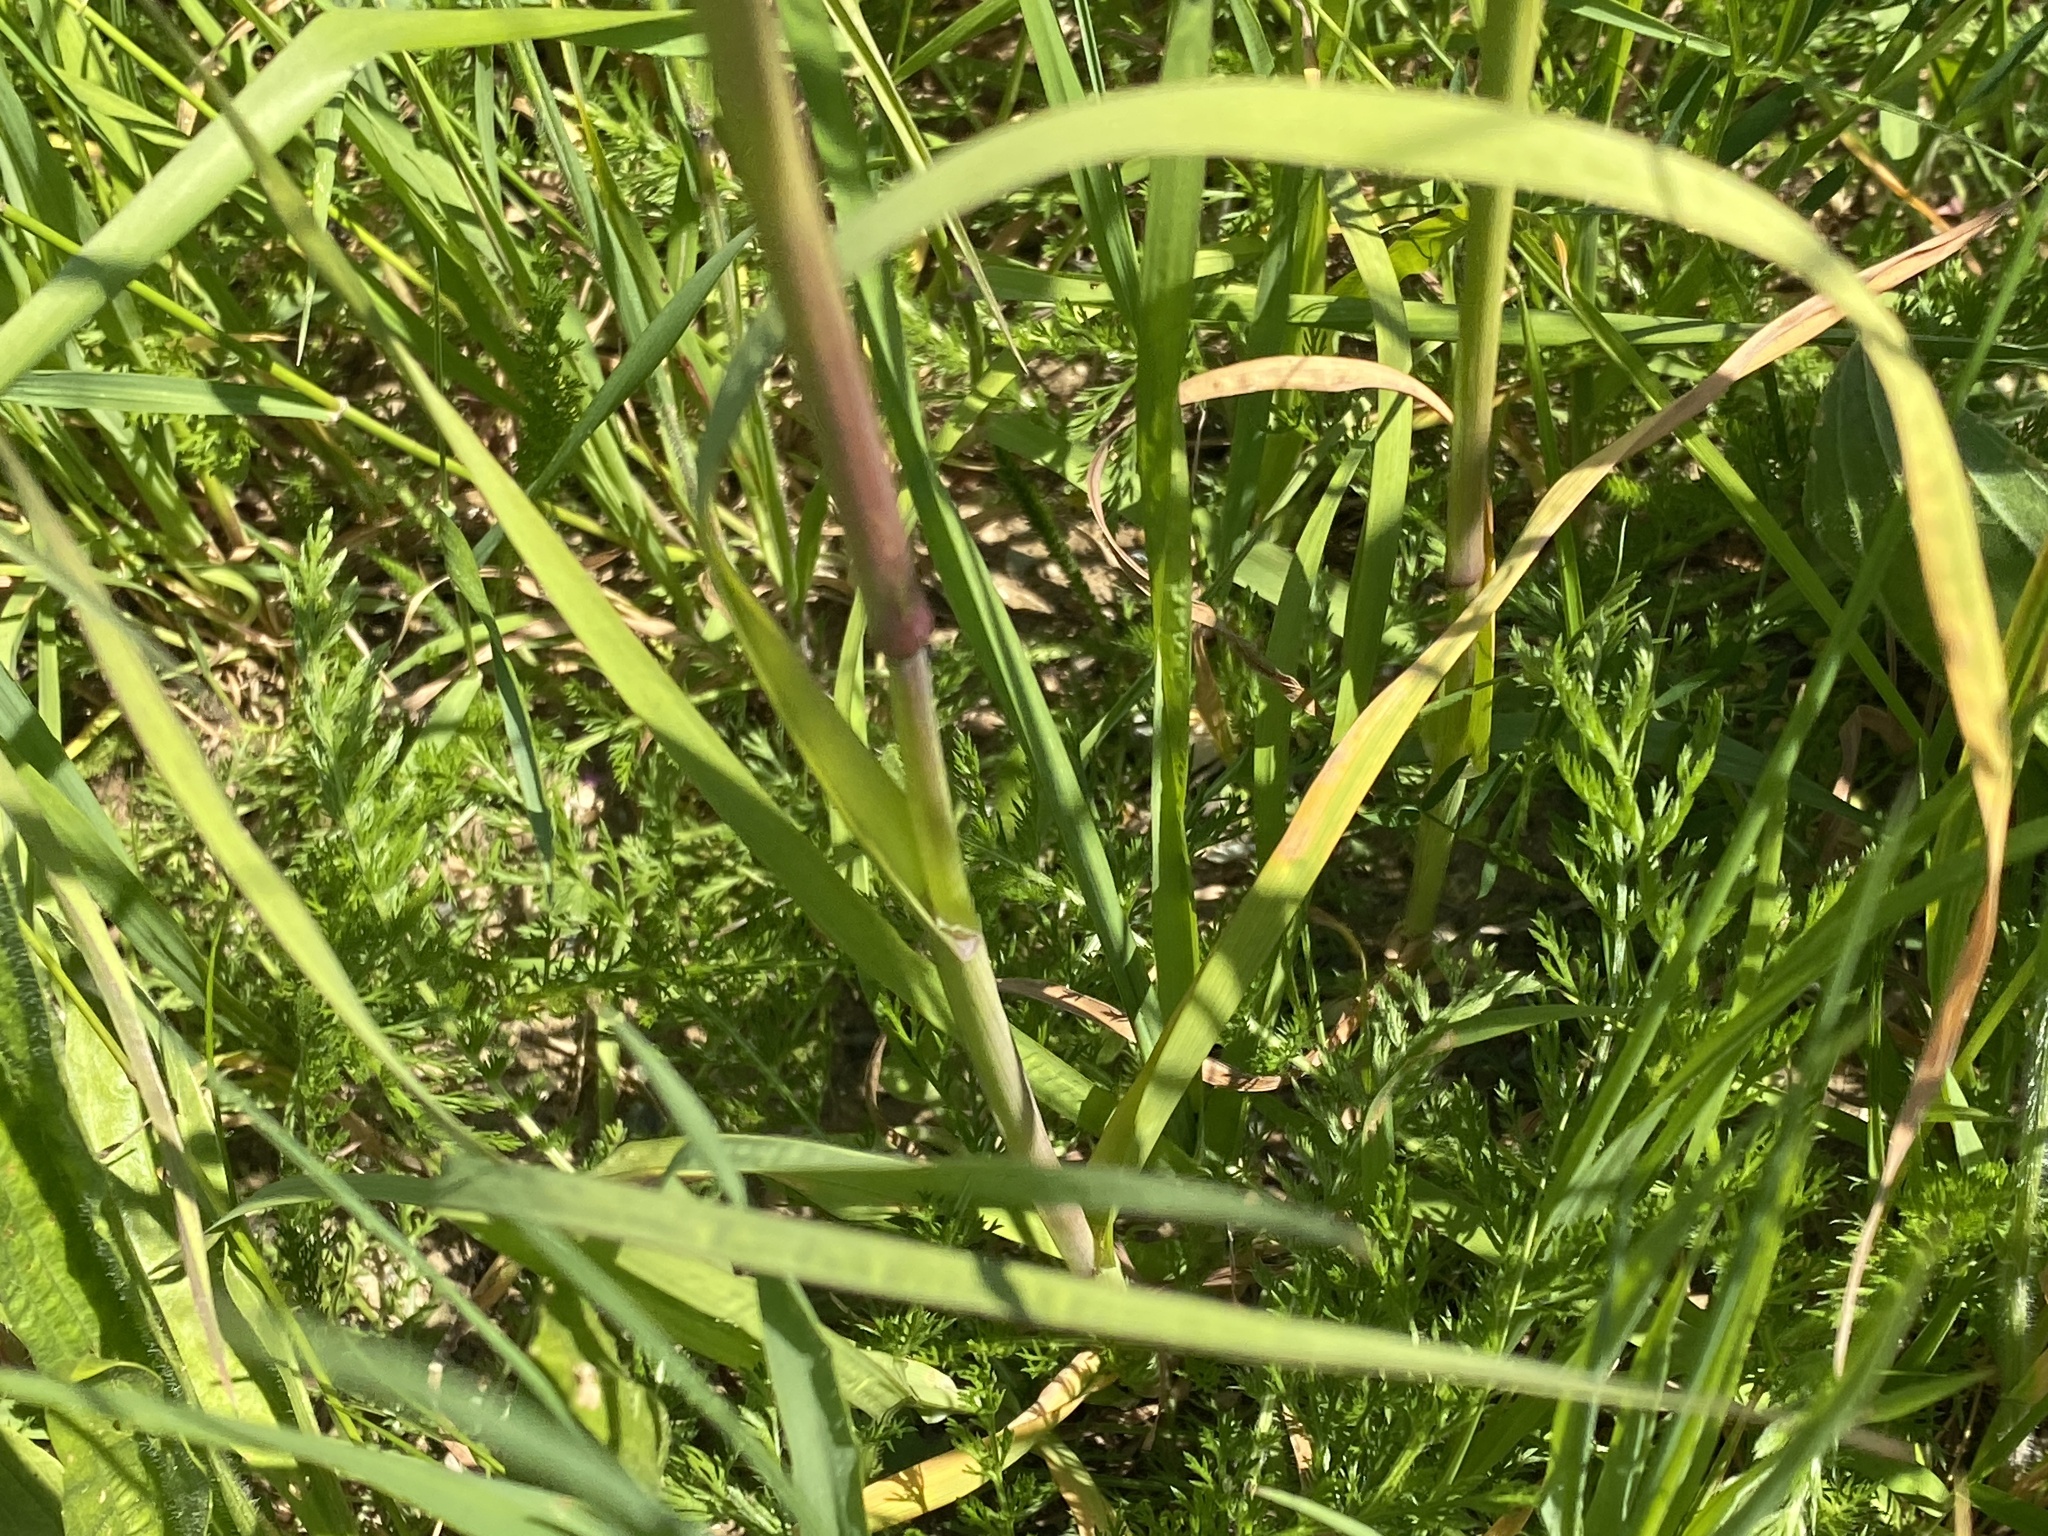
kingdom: Plantae
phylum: Tracheophyta
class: Liliopsida
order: Poales
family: Poaceae
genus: Dactylis
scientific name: Dactylis glomerata
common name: Orchardgrass
